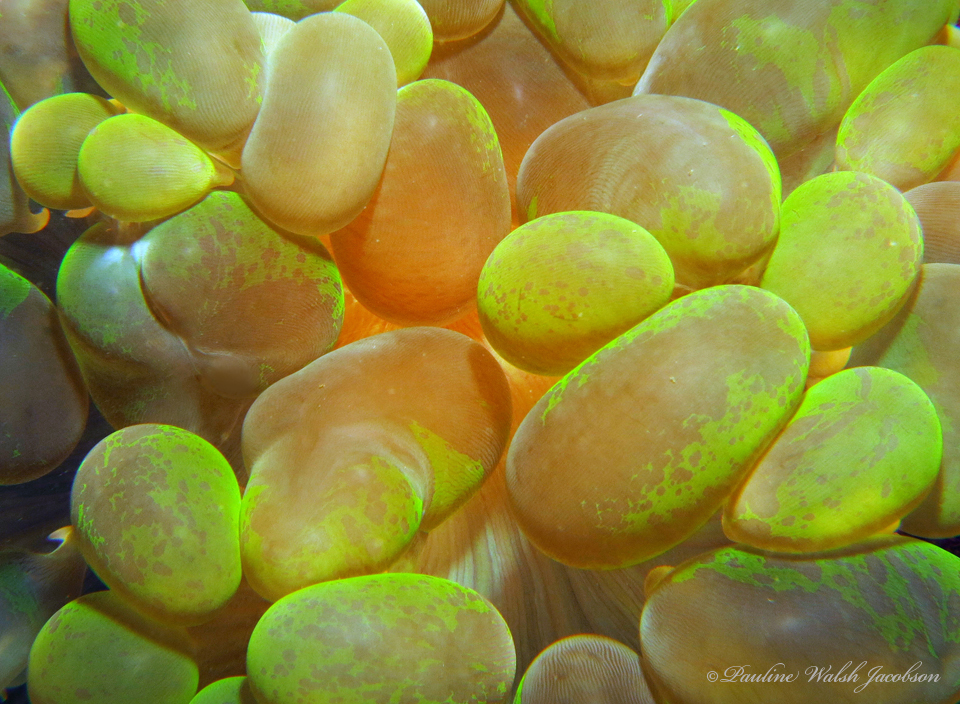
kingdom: Animalia
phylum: Cnidaria
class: Anthozoa
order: Scleractinia
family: Plerogyridae
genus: Plerogyra
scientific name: Plerogyra sinuosa
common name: Bubble coral
